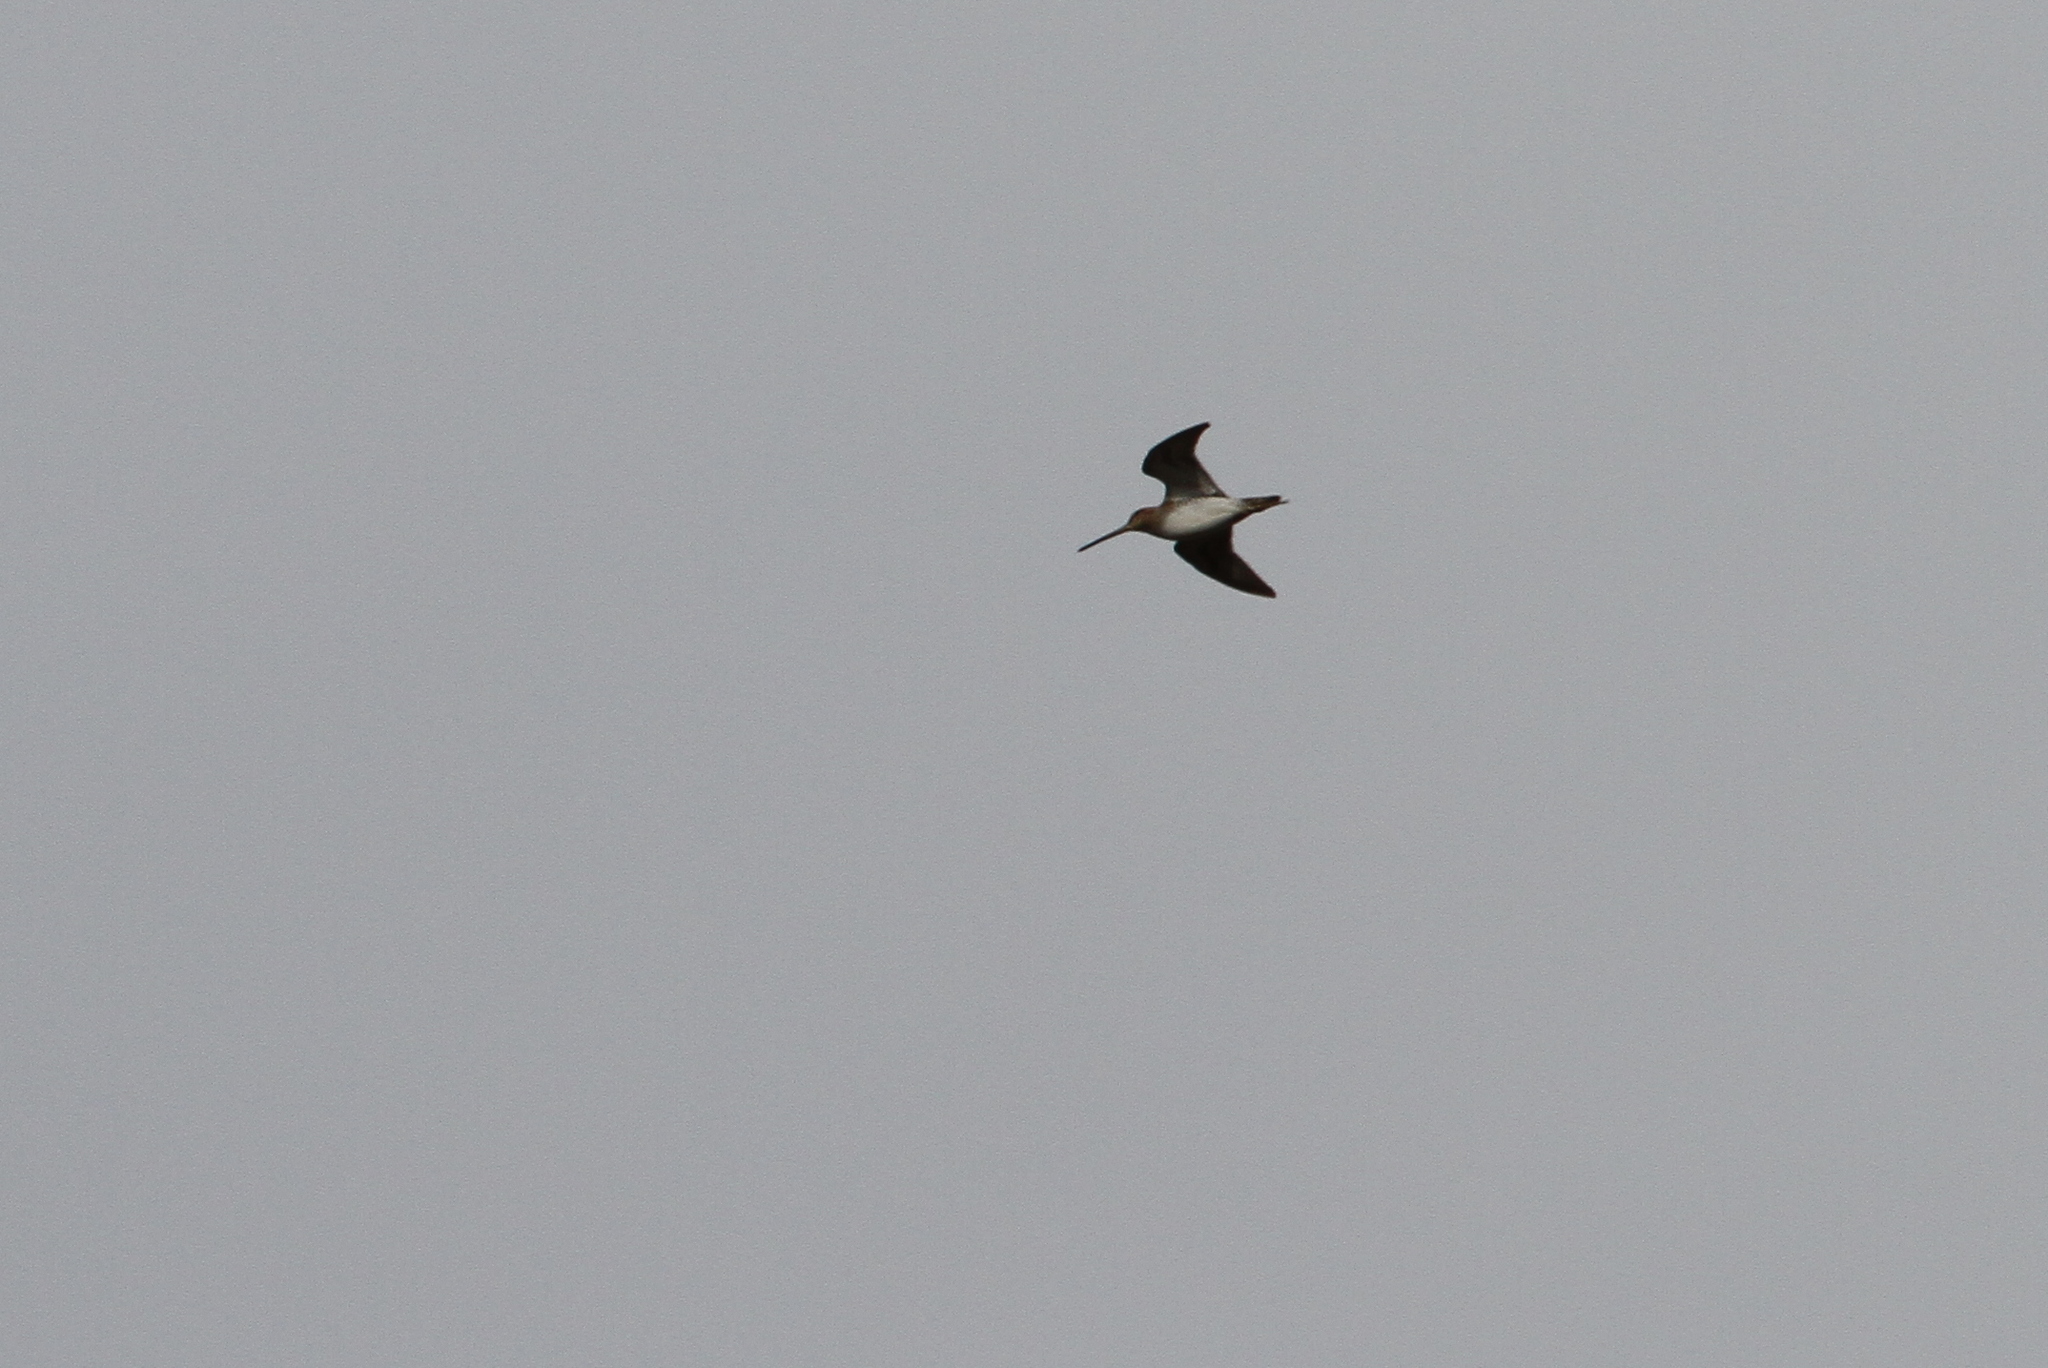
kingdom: Animalia
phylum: Chordata
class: Aves
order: Charadriiformes
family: Scolopacidae
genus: Gallinago
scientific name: Gallinago gallinago
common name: Common snipe
